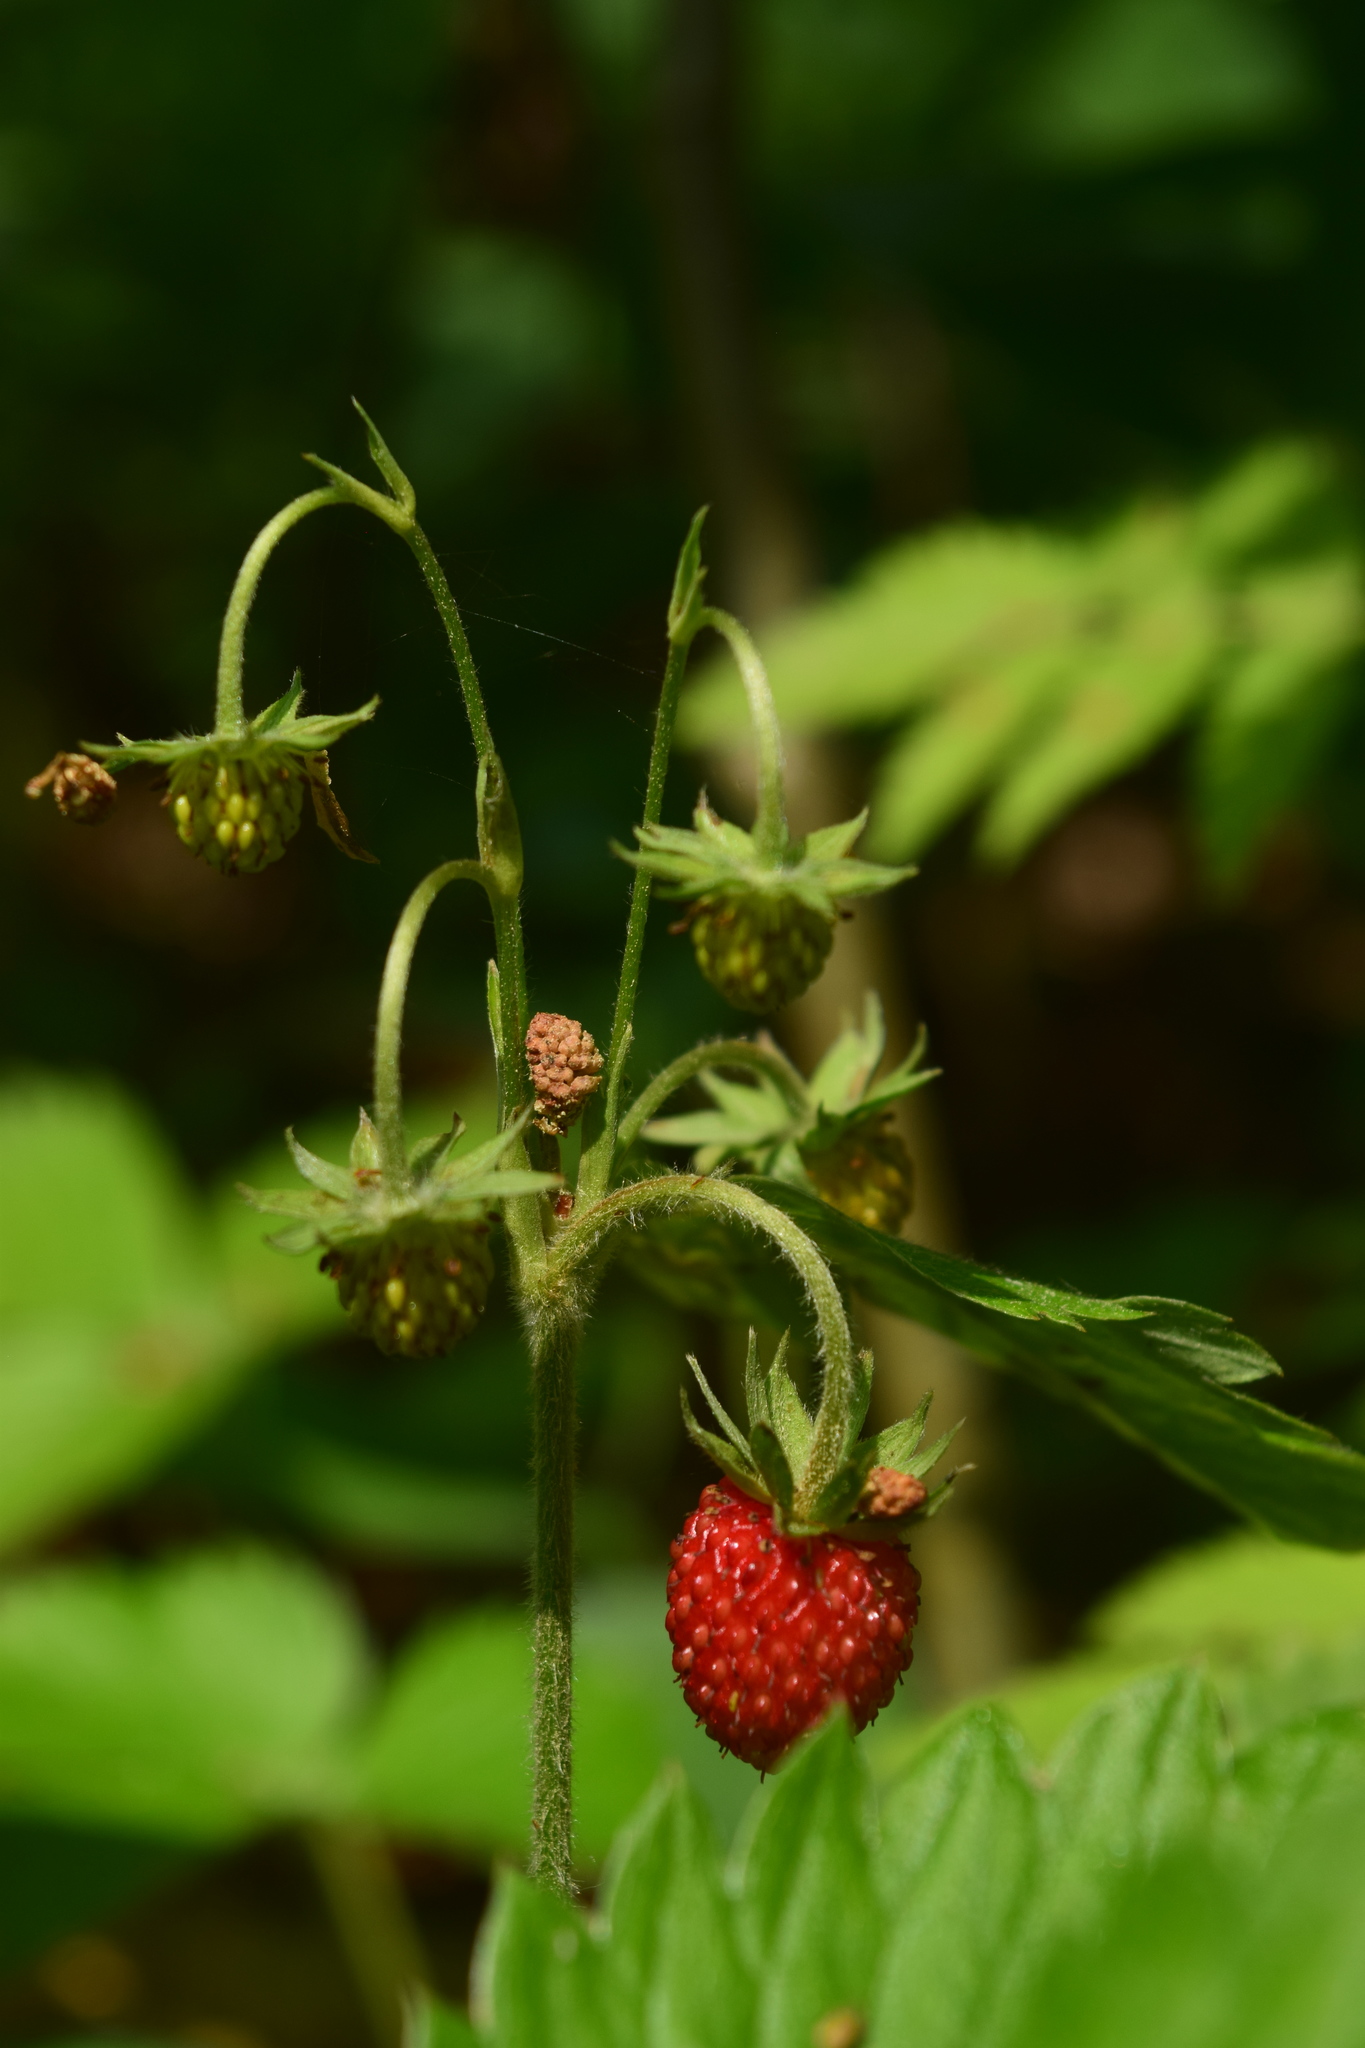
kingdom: Plantae
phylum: Tracheophyta
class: Magnoliopsida
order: Rosales
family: Rosaceae
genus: Fragaria
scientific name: Fragaria vesca
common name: Wild strawberry
